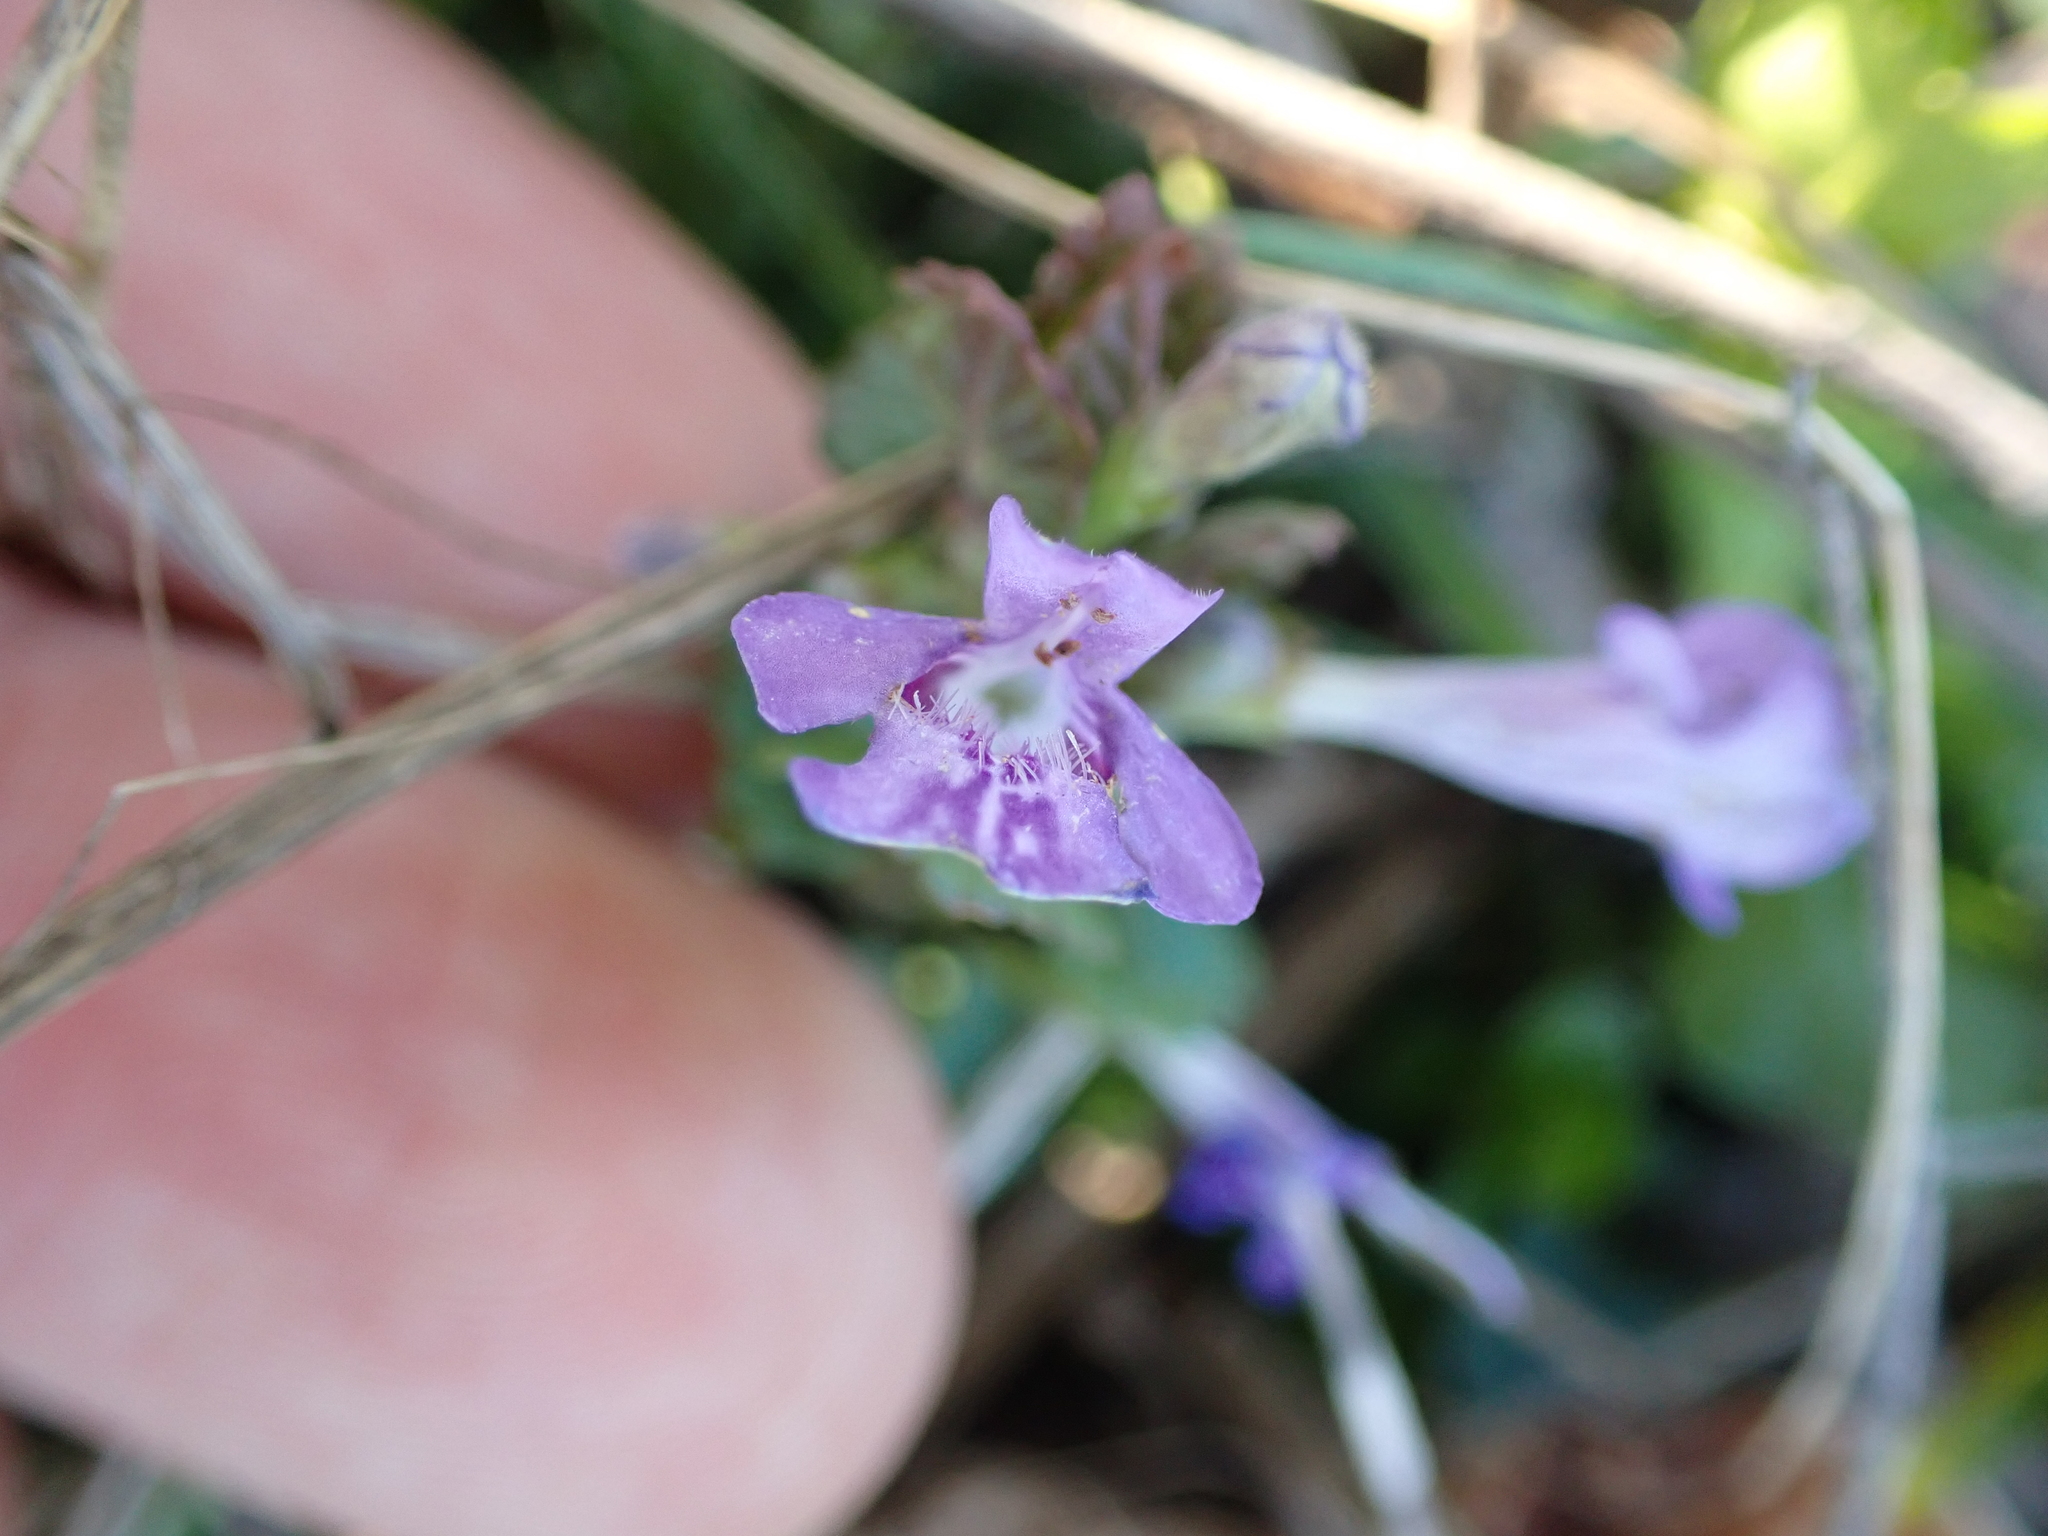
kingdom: Plantae
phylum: Tracheophyta
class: Magnoliopsida
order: Lamiales
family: Lamiaceae
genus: Glechoma
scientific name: Glechoma hederacea
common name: Ground ivy
